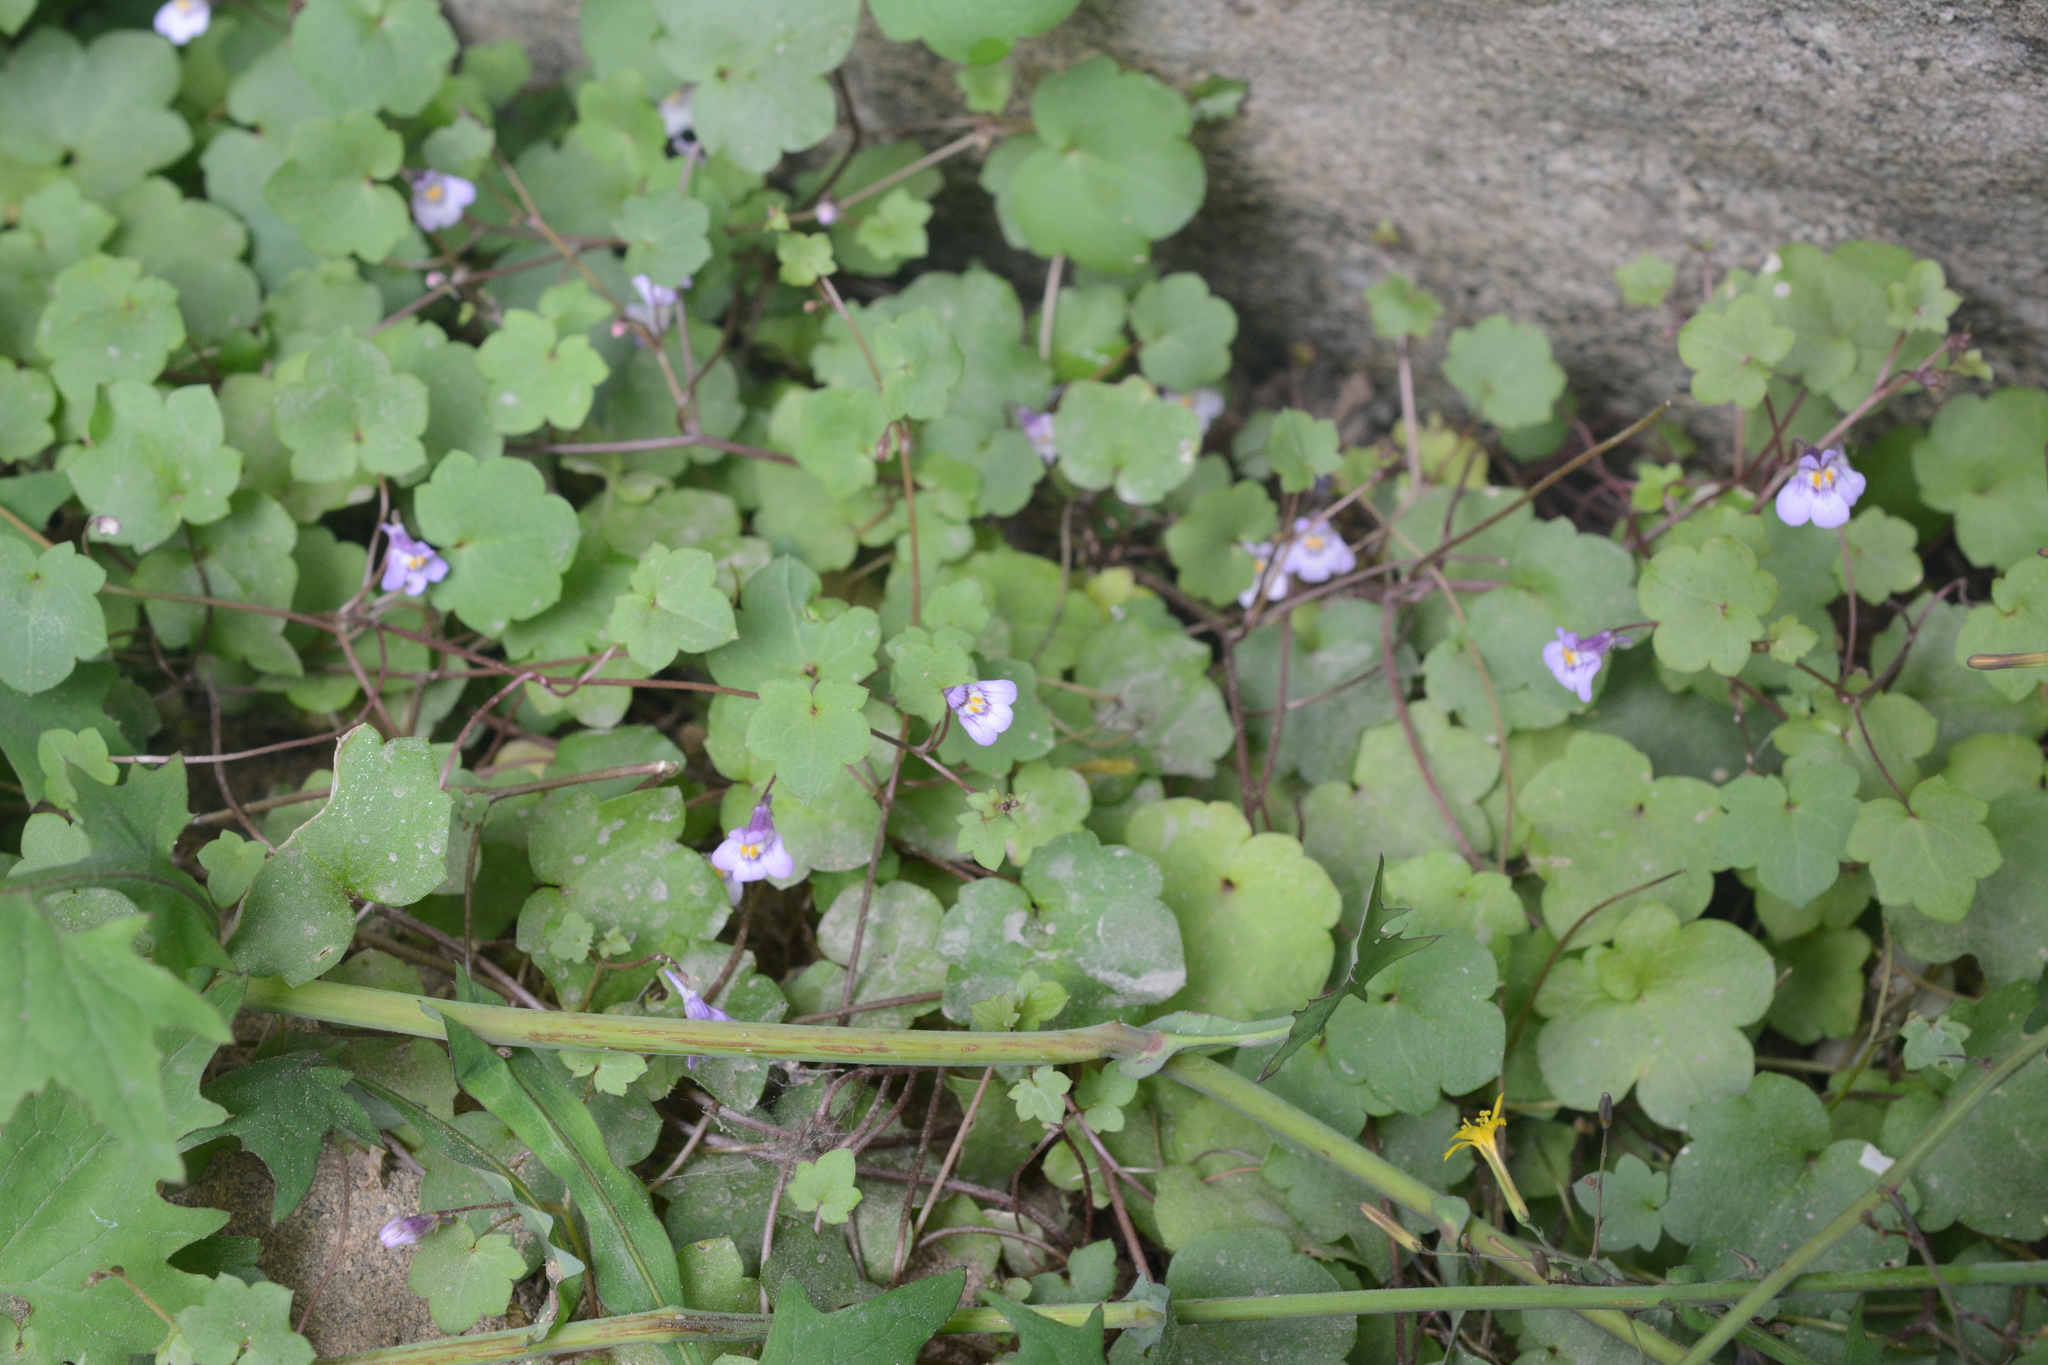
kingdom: Plantae
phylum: Tracheophyta
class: Magnoliopsida
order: Lamiales
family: Plantaginaceae
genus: Cymbalaria
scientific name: Cymbalaria muralis
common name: Ivy-leaved toadflax
